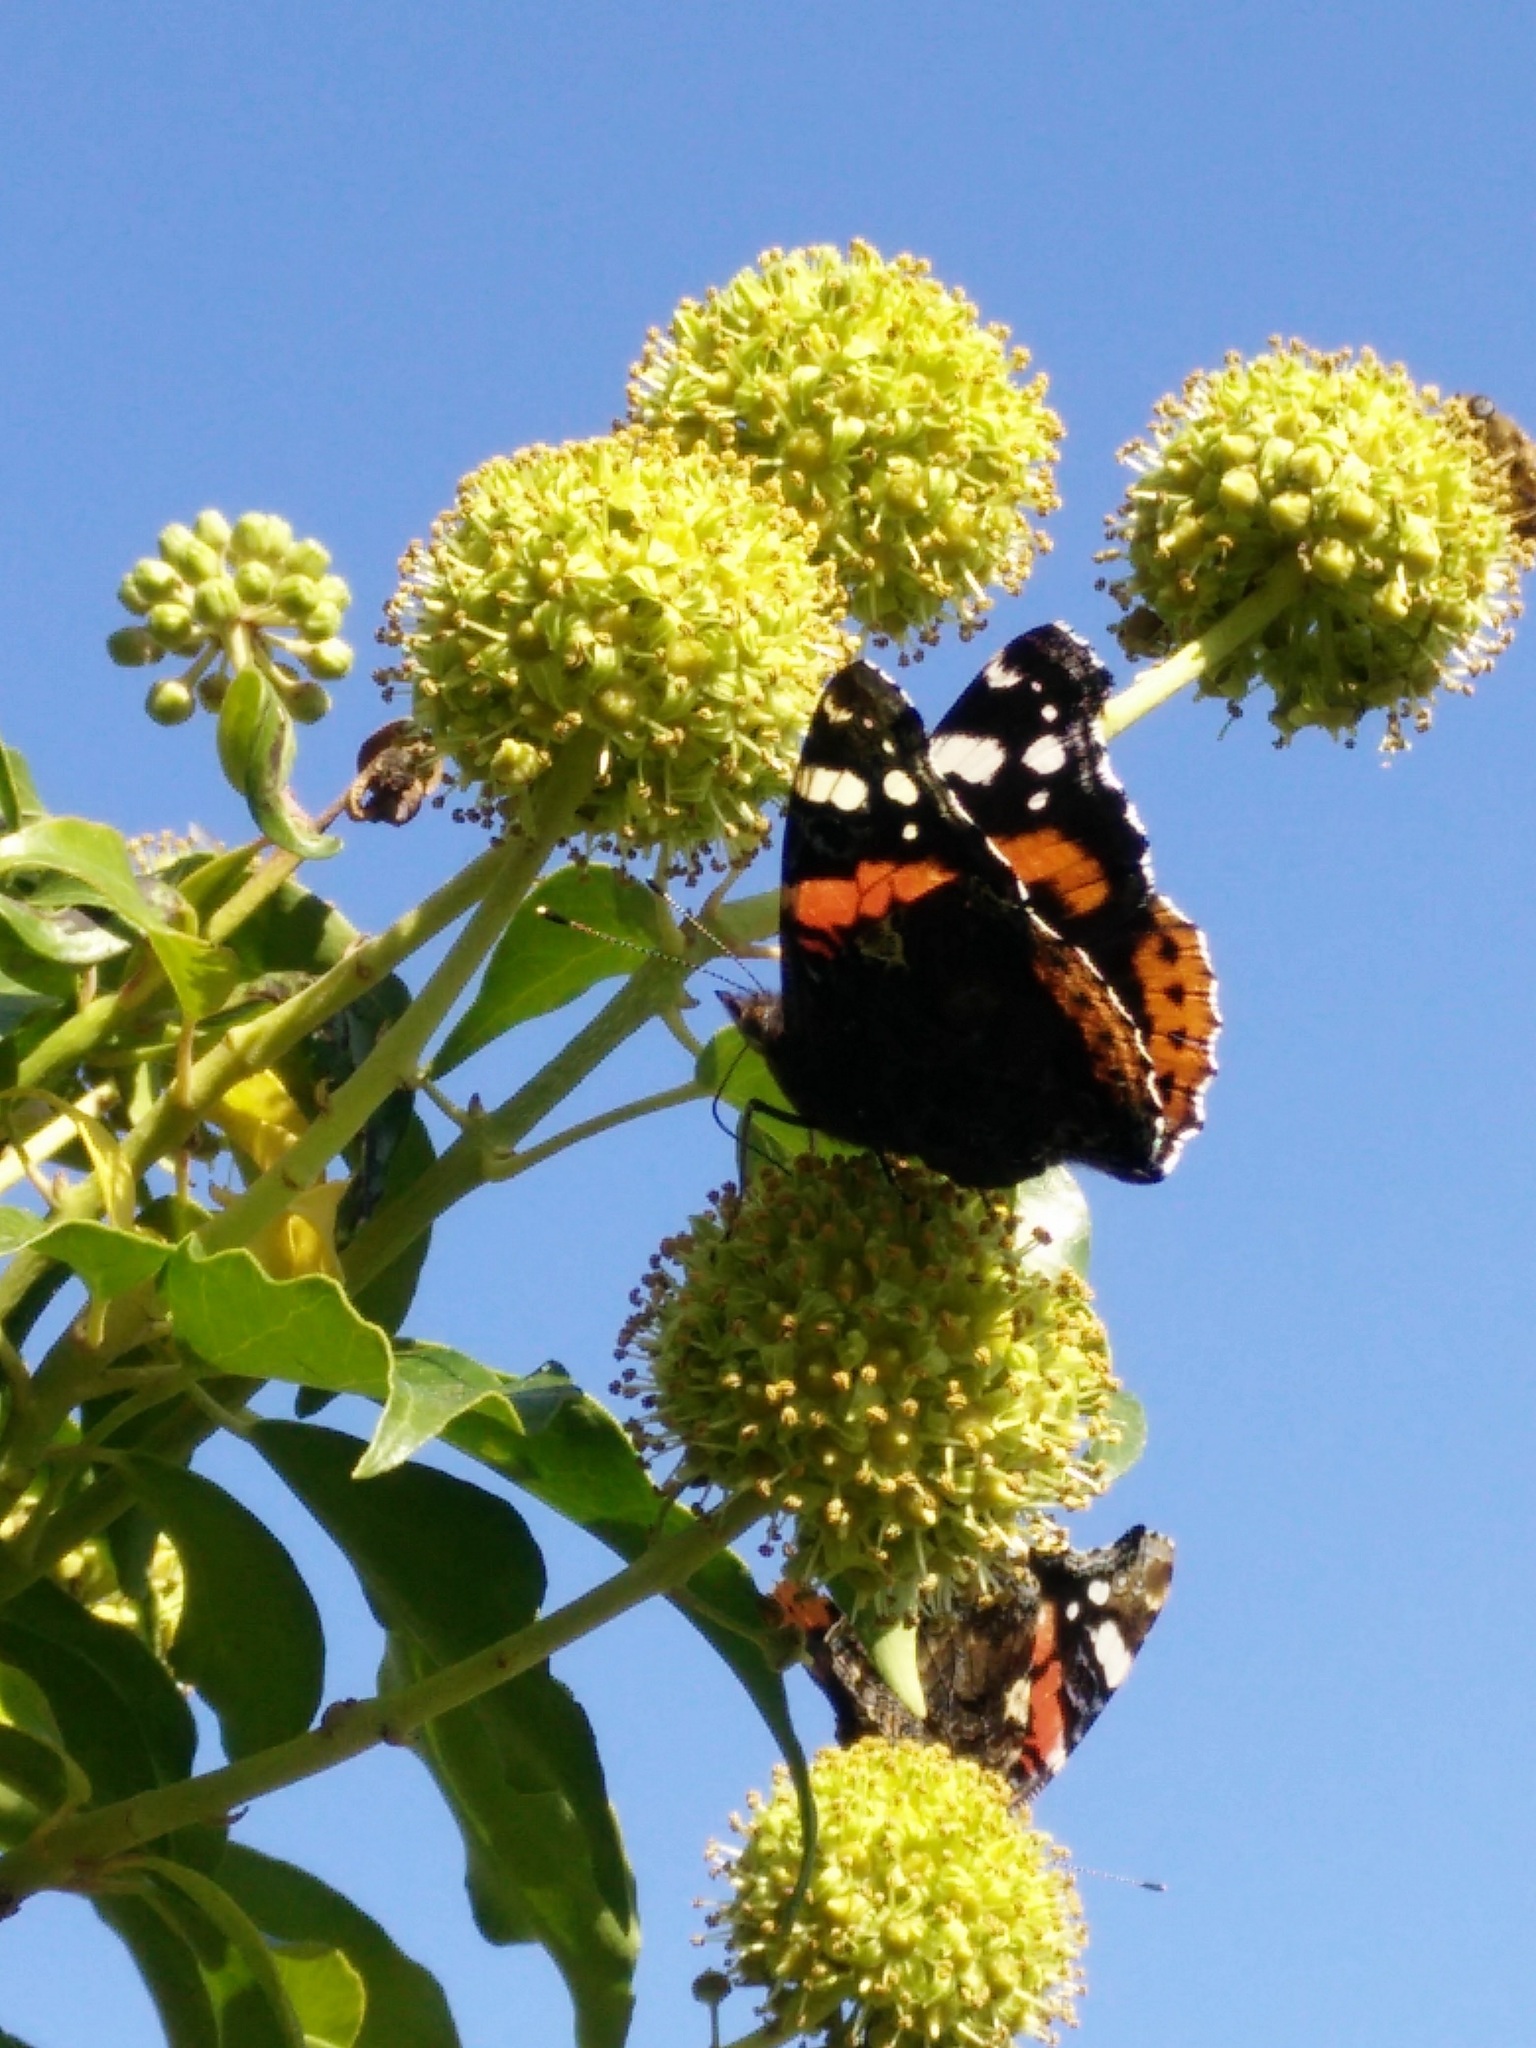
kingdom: Animalia
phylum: Arthropoda
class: Insecta
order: Lepidoptera
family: Nymphalidae
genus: Vanessa
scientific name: Vanessa atalanta
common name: Red admiral
